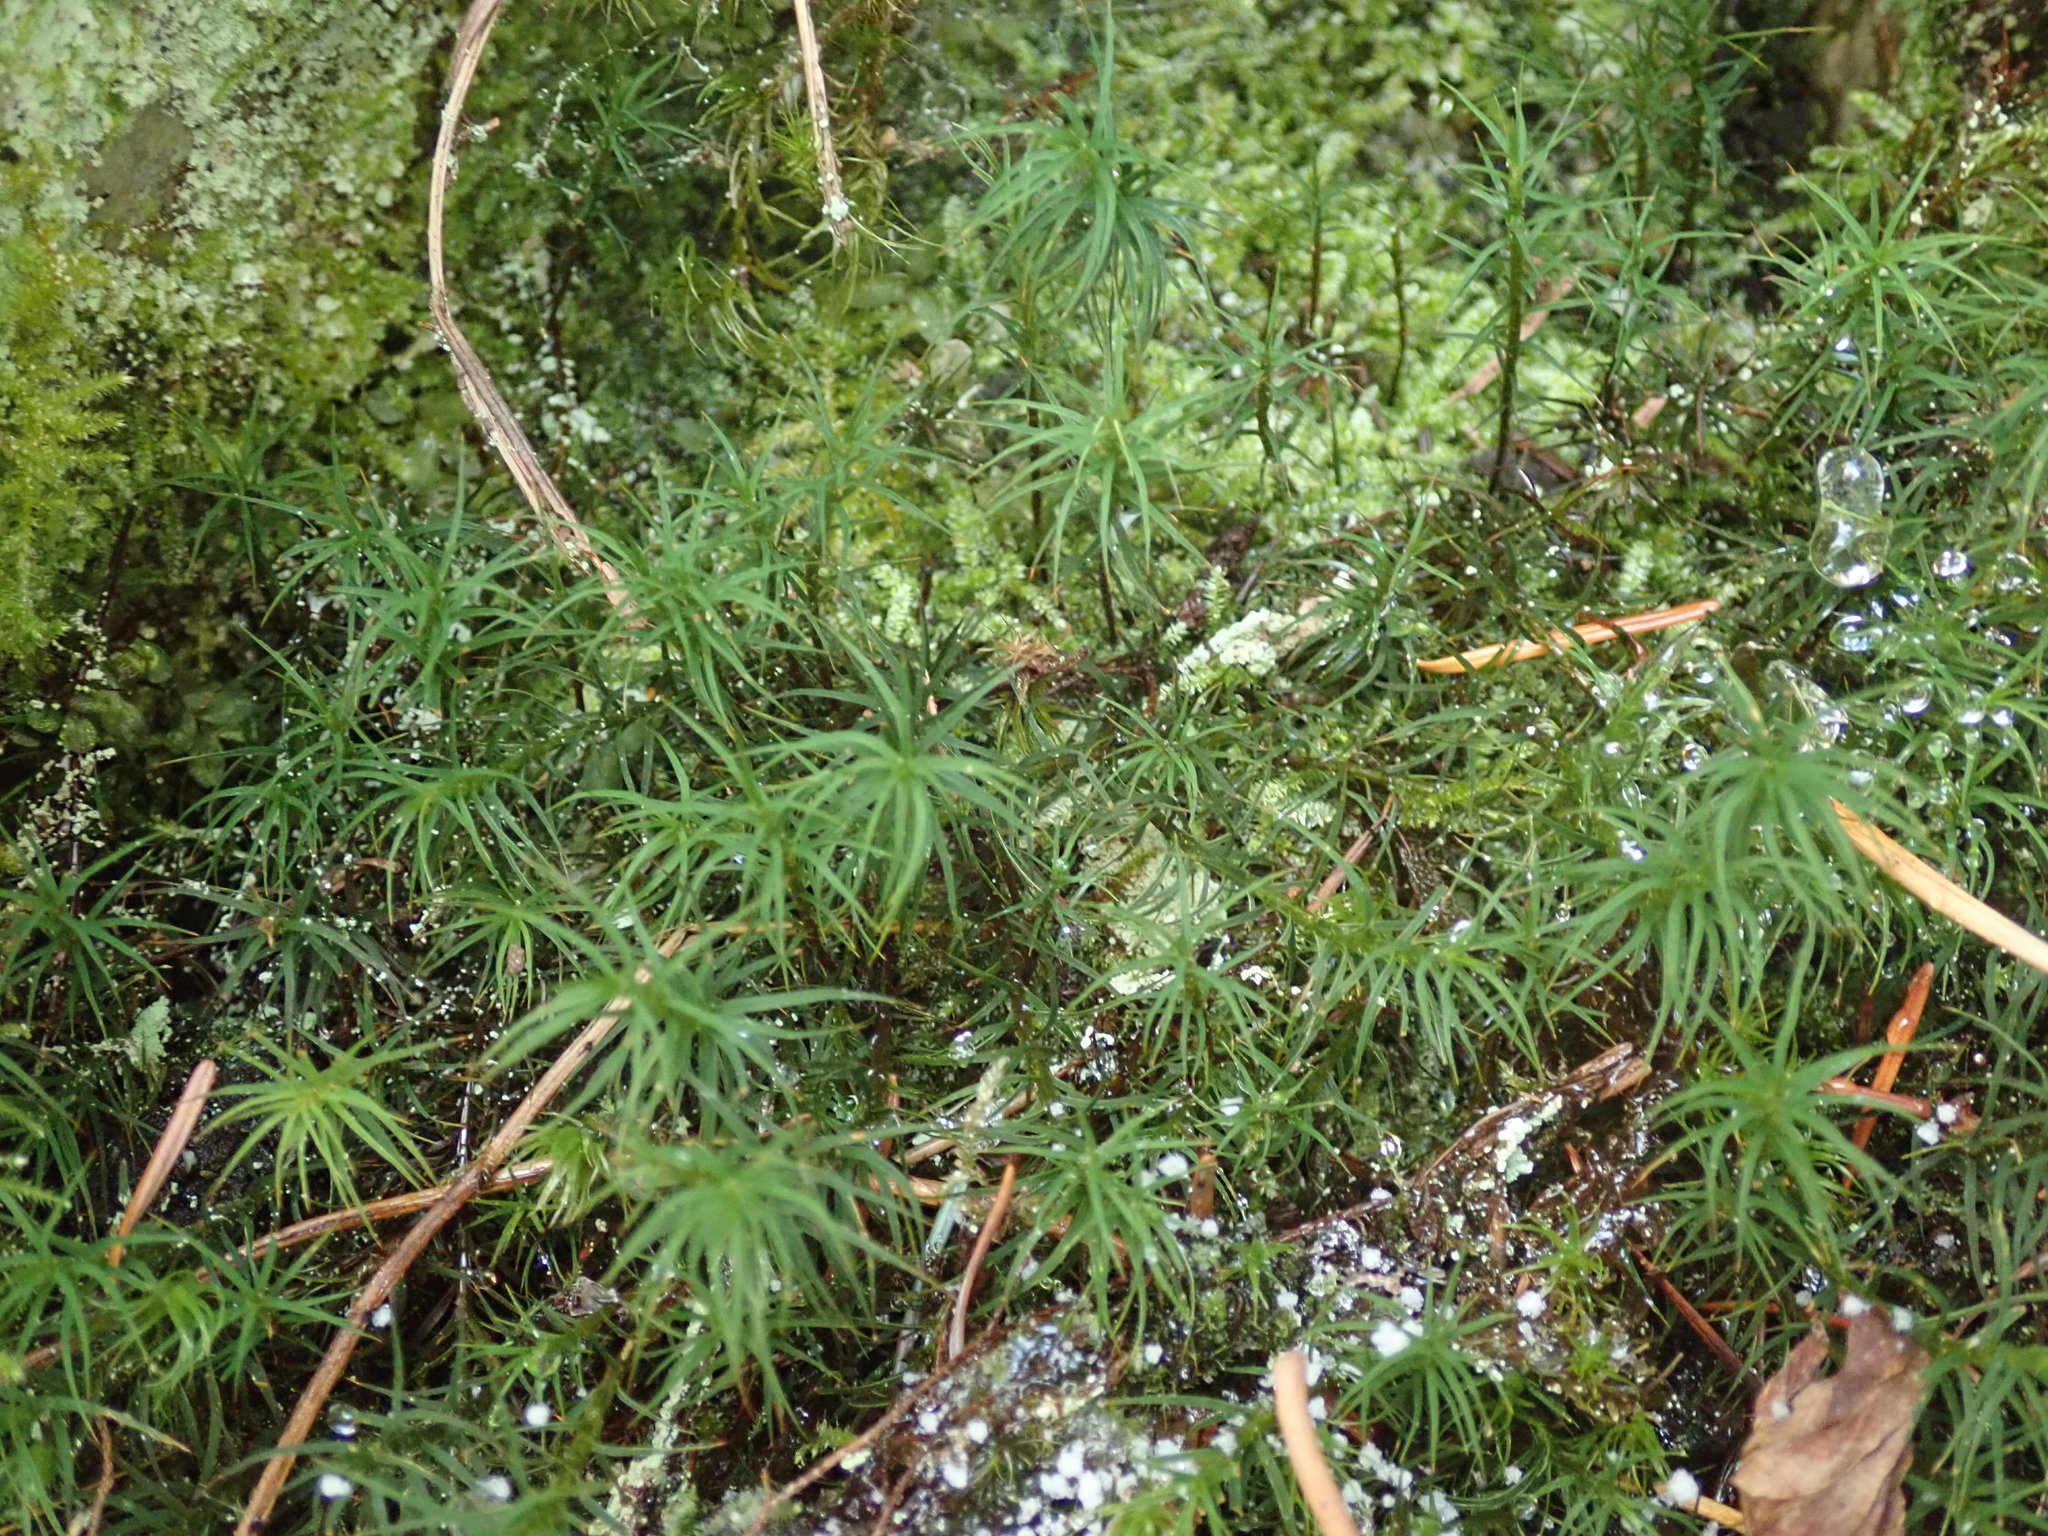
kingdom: Plantae
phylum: Bryophyta
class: Polytrichopsida
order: Polytrichales
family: Polytrichaceae
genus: Polytrichastrum
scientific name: Polytrichastrum alpinum
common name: Alpine haircap
